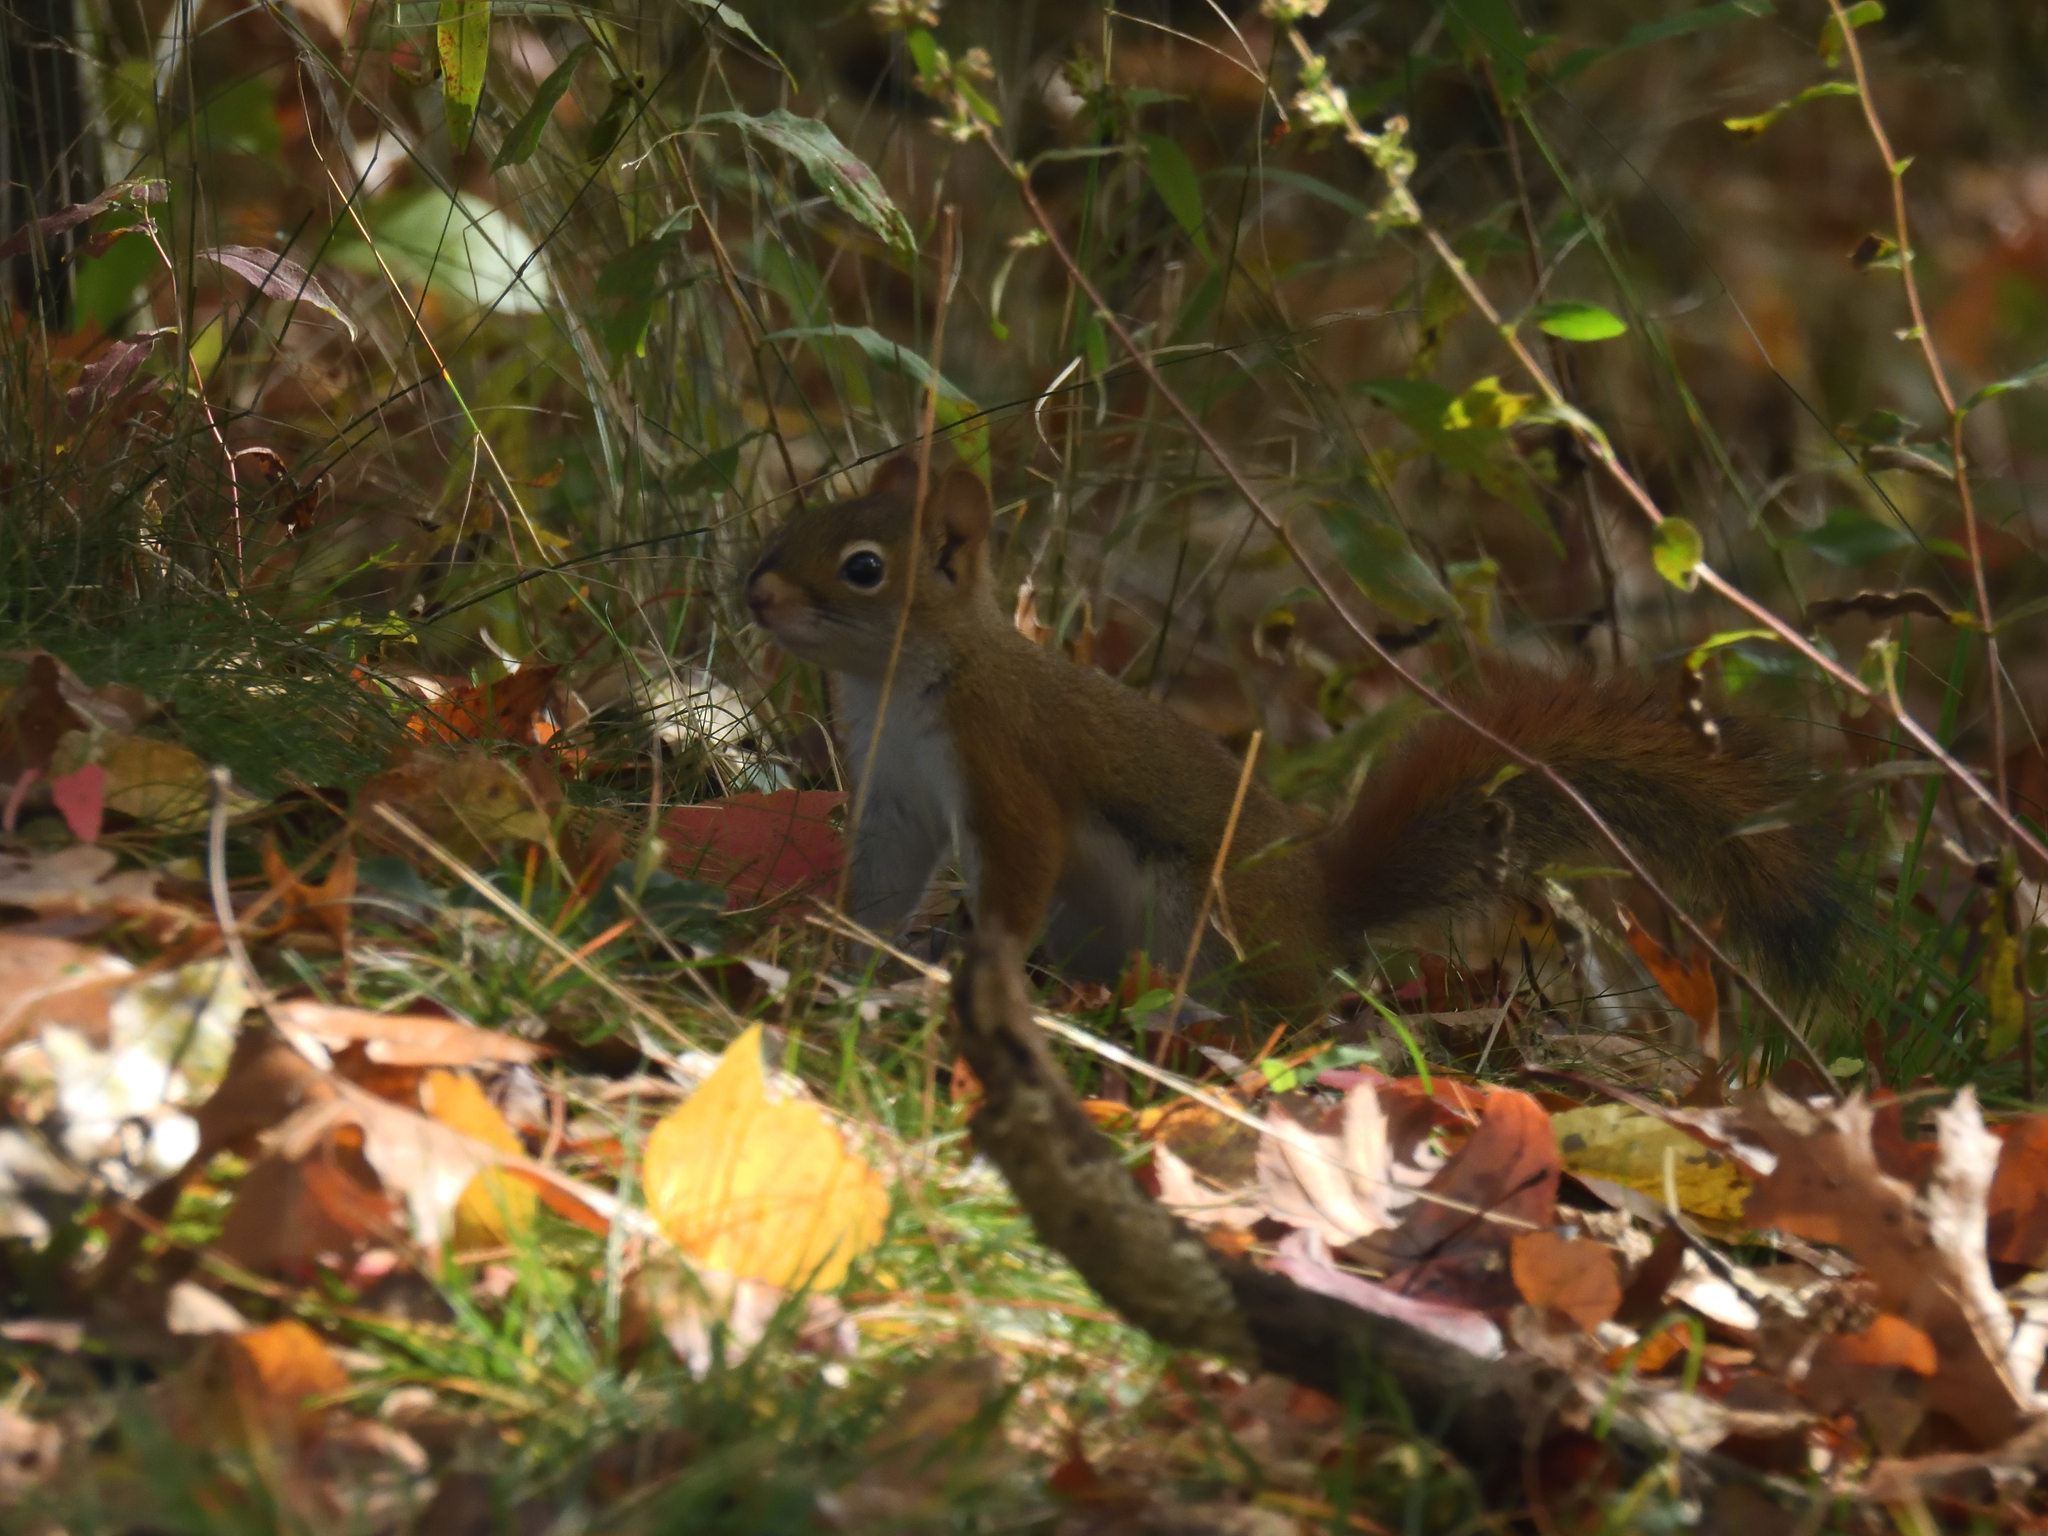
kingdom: Animalia
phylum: Chordata
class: Mammalia
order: Rodentia
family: Sciuridae
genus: Tamiasciurus
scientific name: Tamiasciurus hudsonicus
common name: Red squirrel
